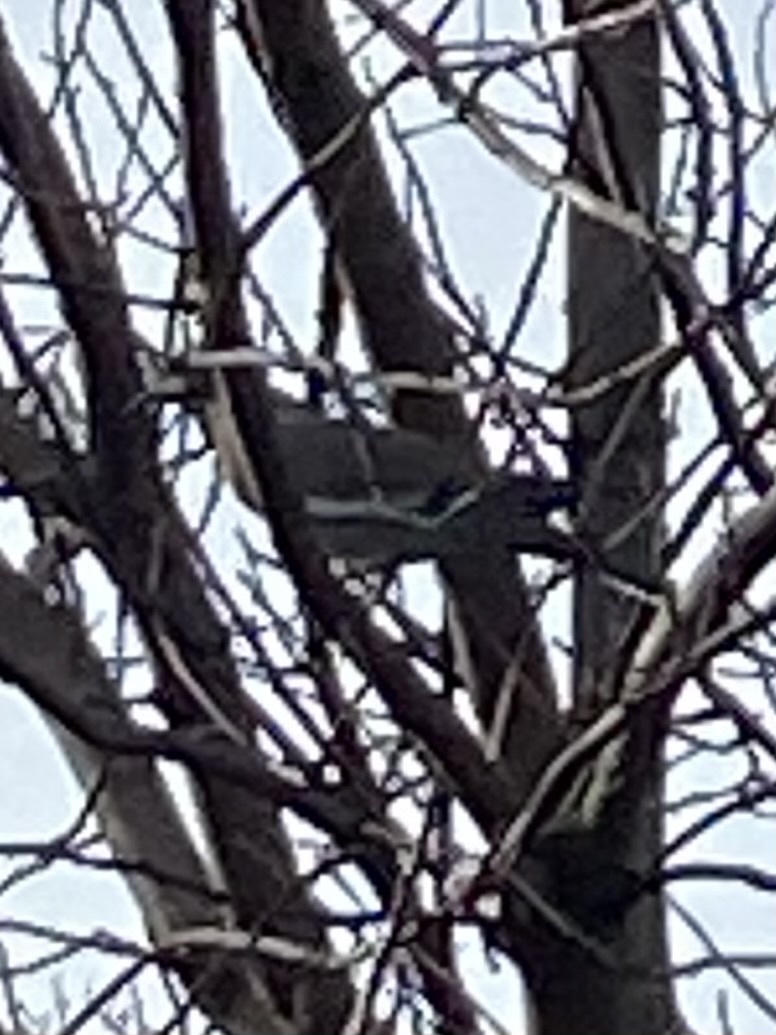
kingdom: Animalia
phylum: Chordata
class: Aves
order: Columbiformes
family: Columbidae
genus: Zenaida
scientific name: Zenaida asiatica
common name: White-winged dove
